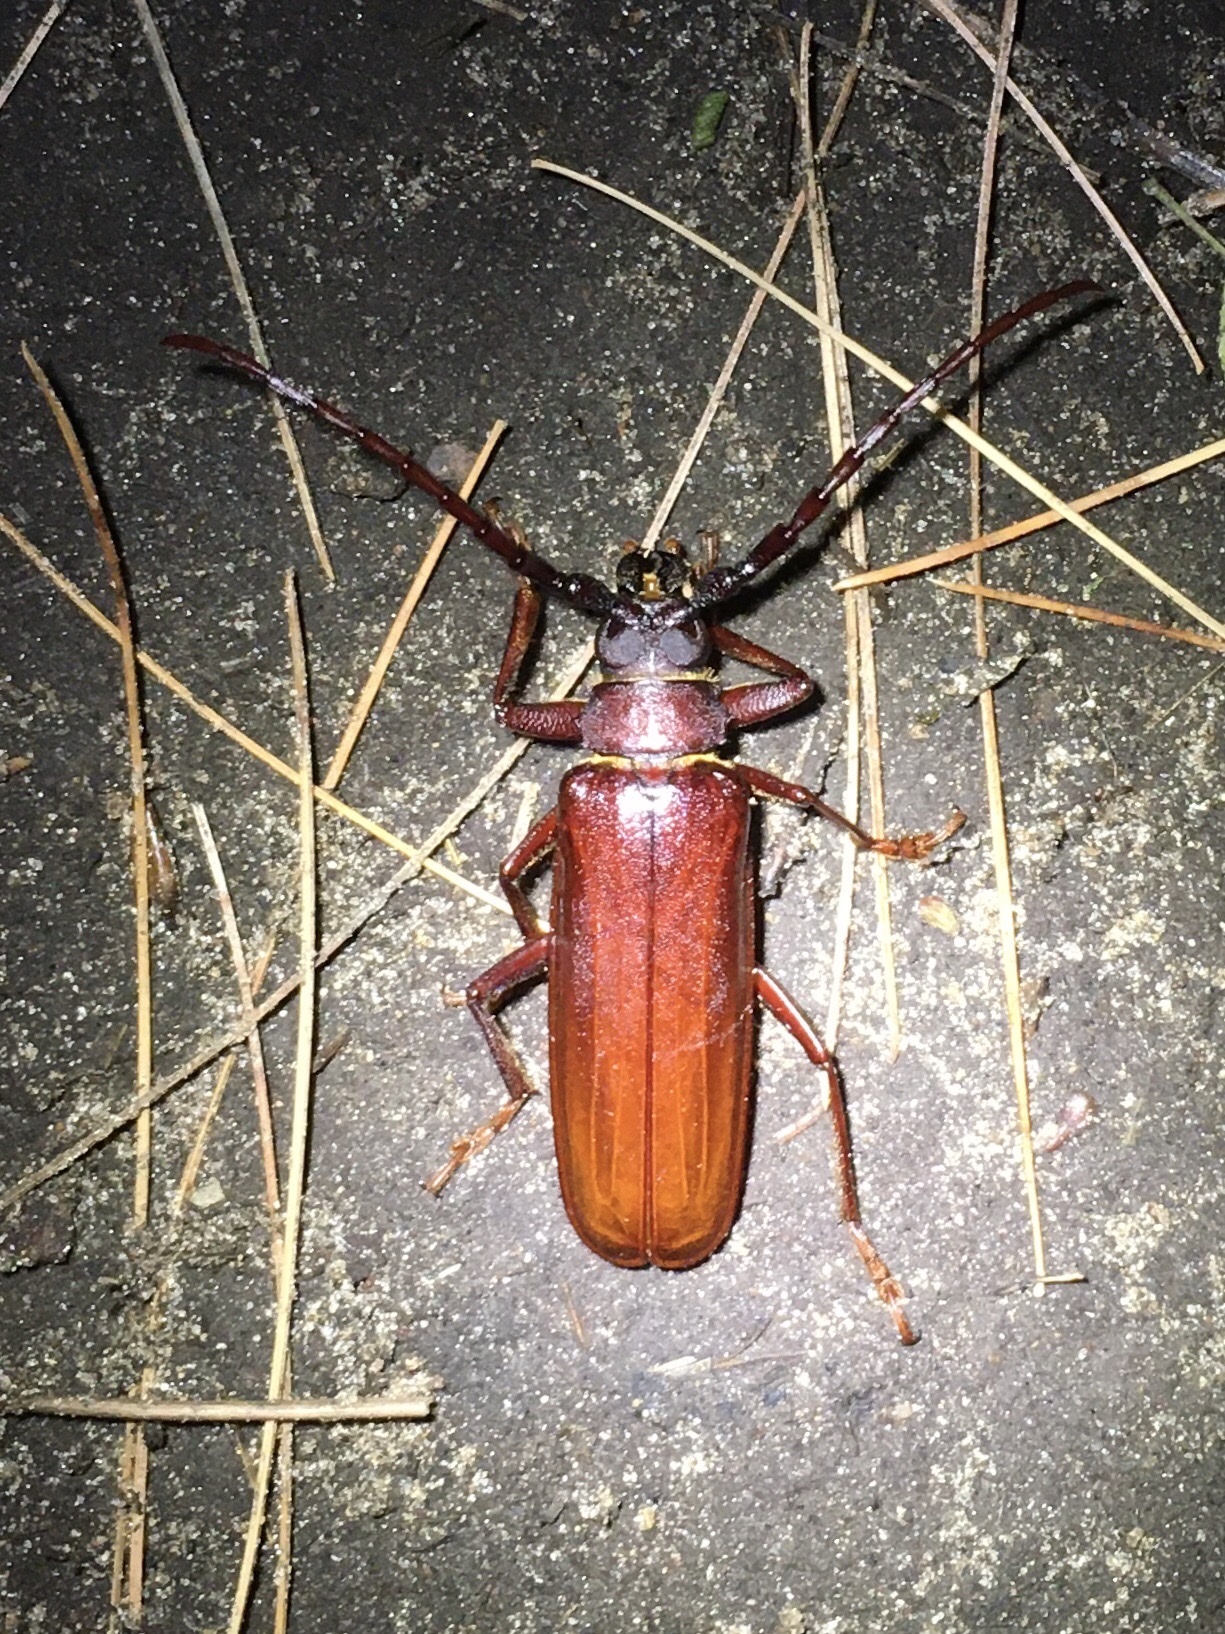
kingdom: Animalia
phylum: Arthropoda
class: Insecta
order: Coleoptera
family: Cerambycidae
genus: Orthosoma
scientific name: Orthosoma brunneum
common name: Brown prionid beetle
